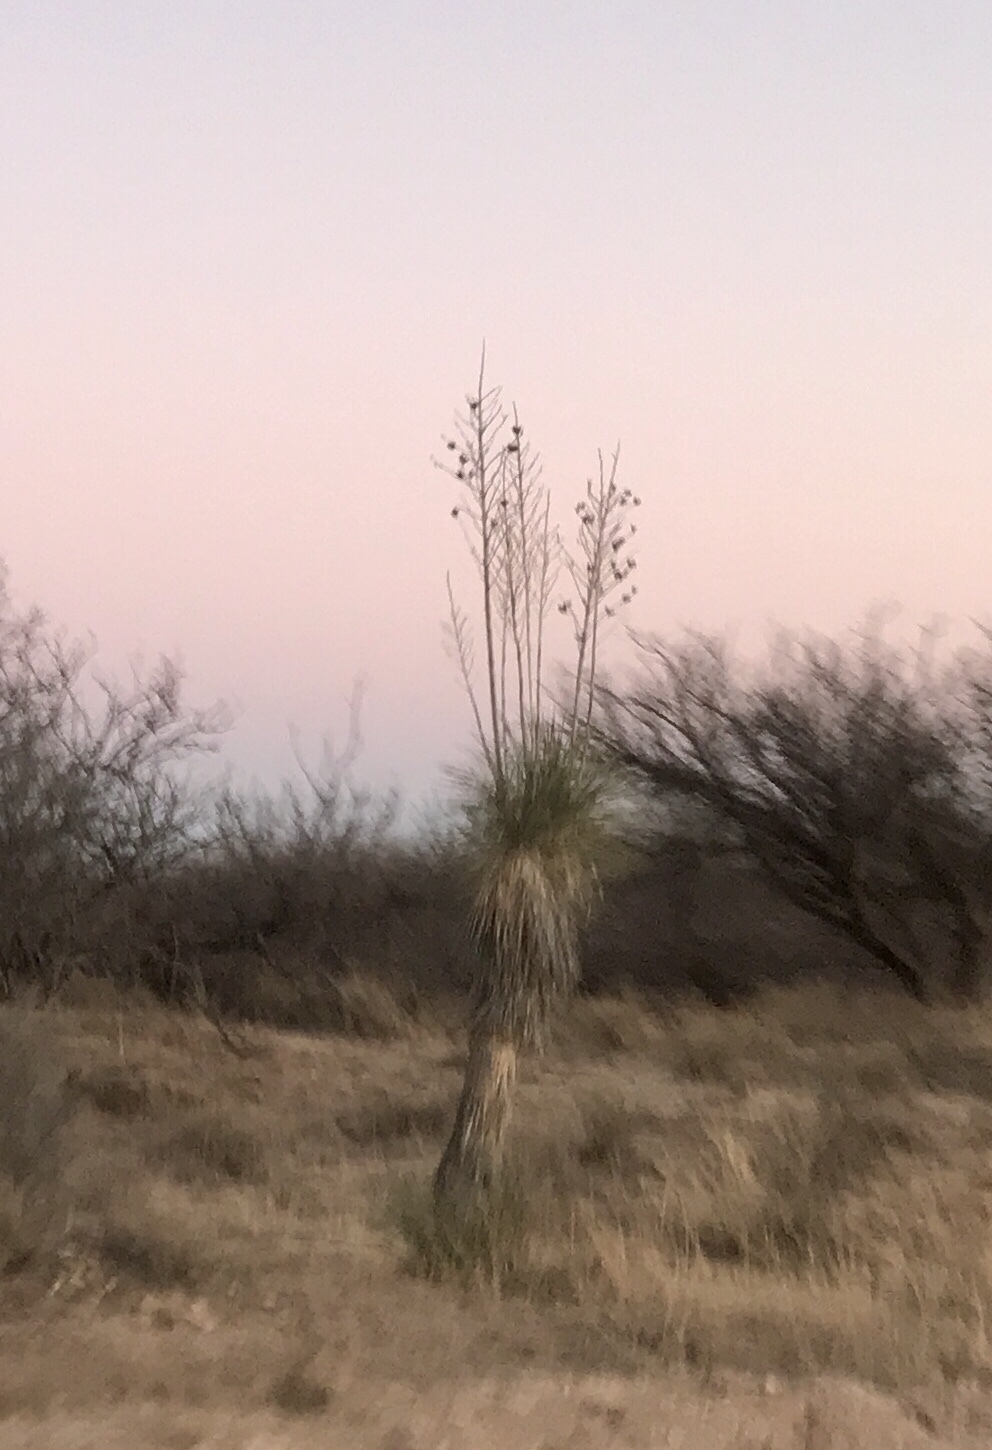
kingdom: Plantae
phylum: Tracheophyta
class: Liliopsida
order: Asparagales
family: Asparagaceae
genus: Yucca
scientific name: Yucca elata
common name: Palmella
